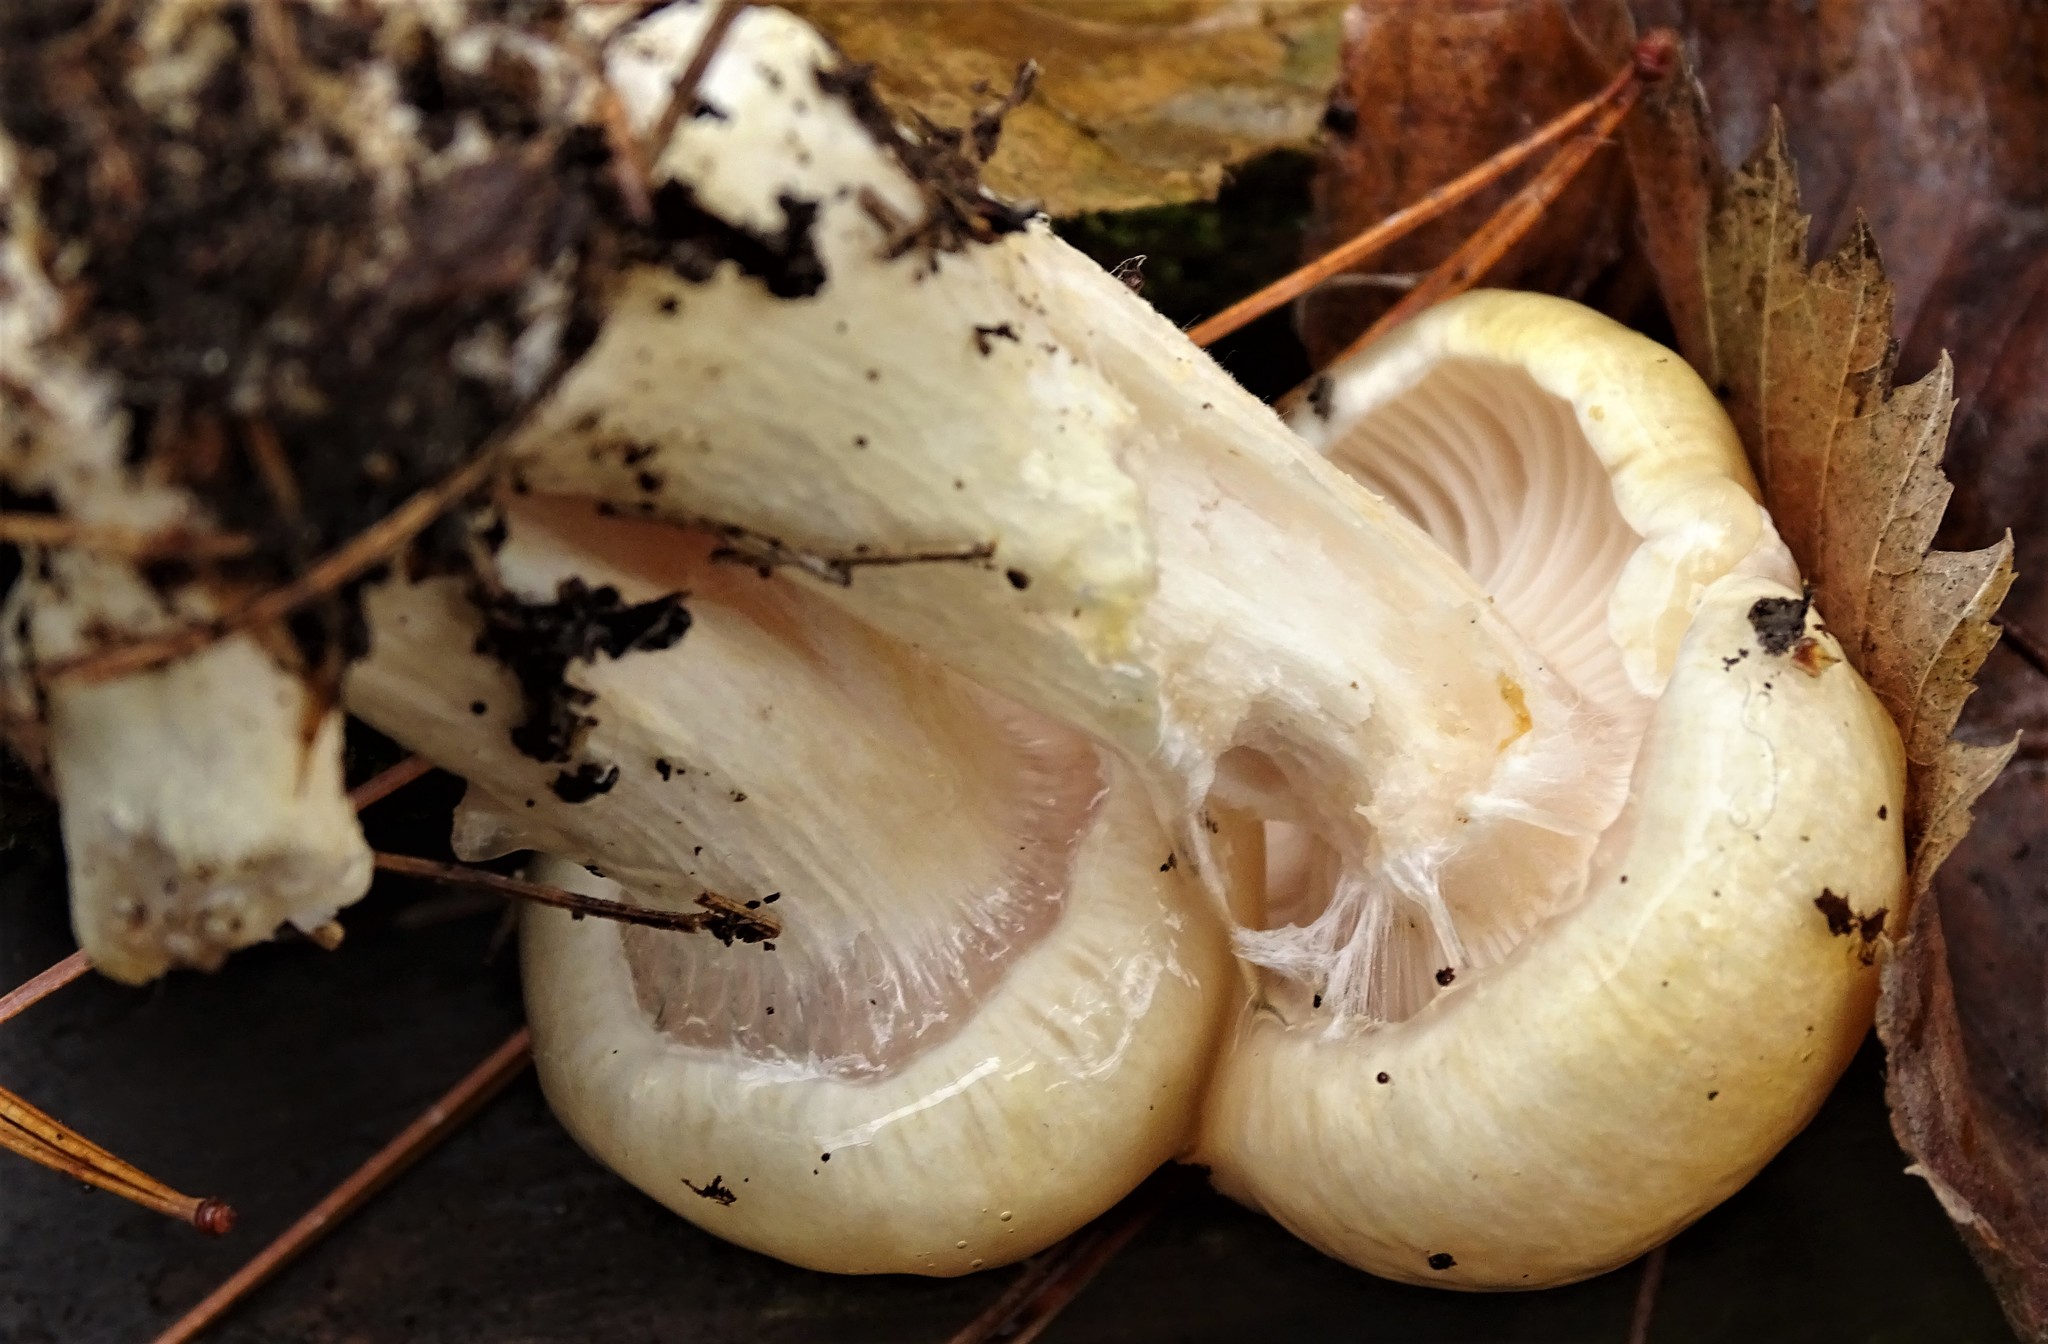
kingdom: Fungi
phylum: Basidiomycota
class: Agaricomycetes
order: Agaricales
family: Hygrophoraceae
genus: Hygrophorus
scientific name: Hygrophorus ligatus
